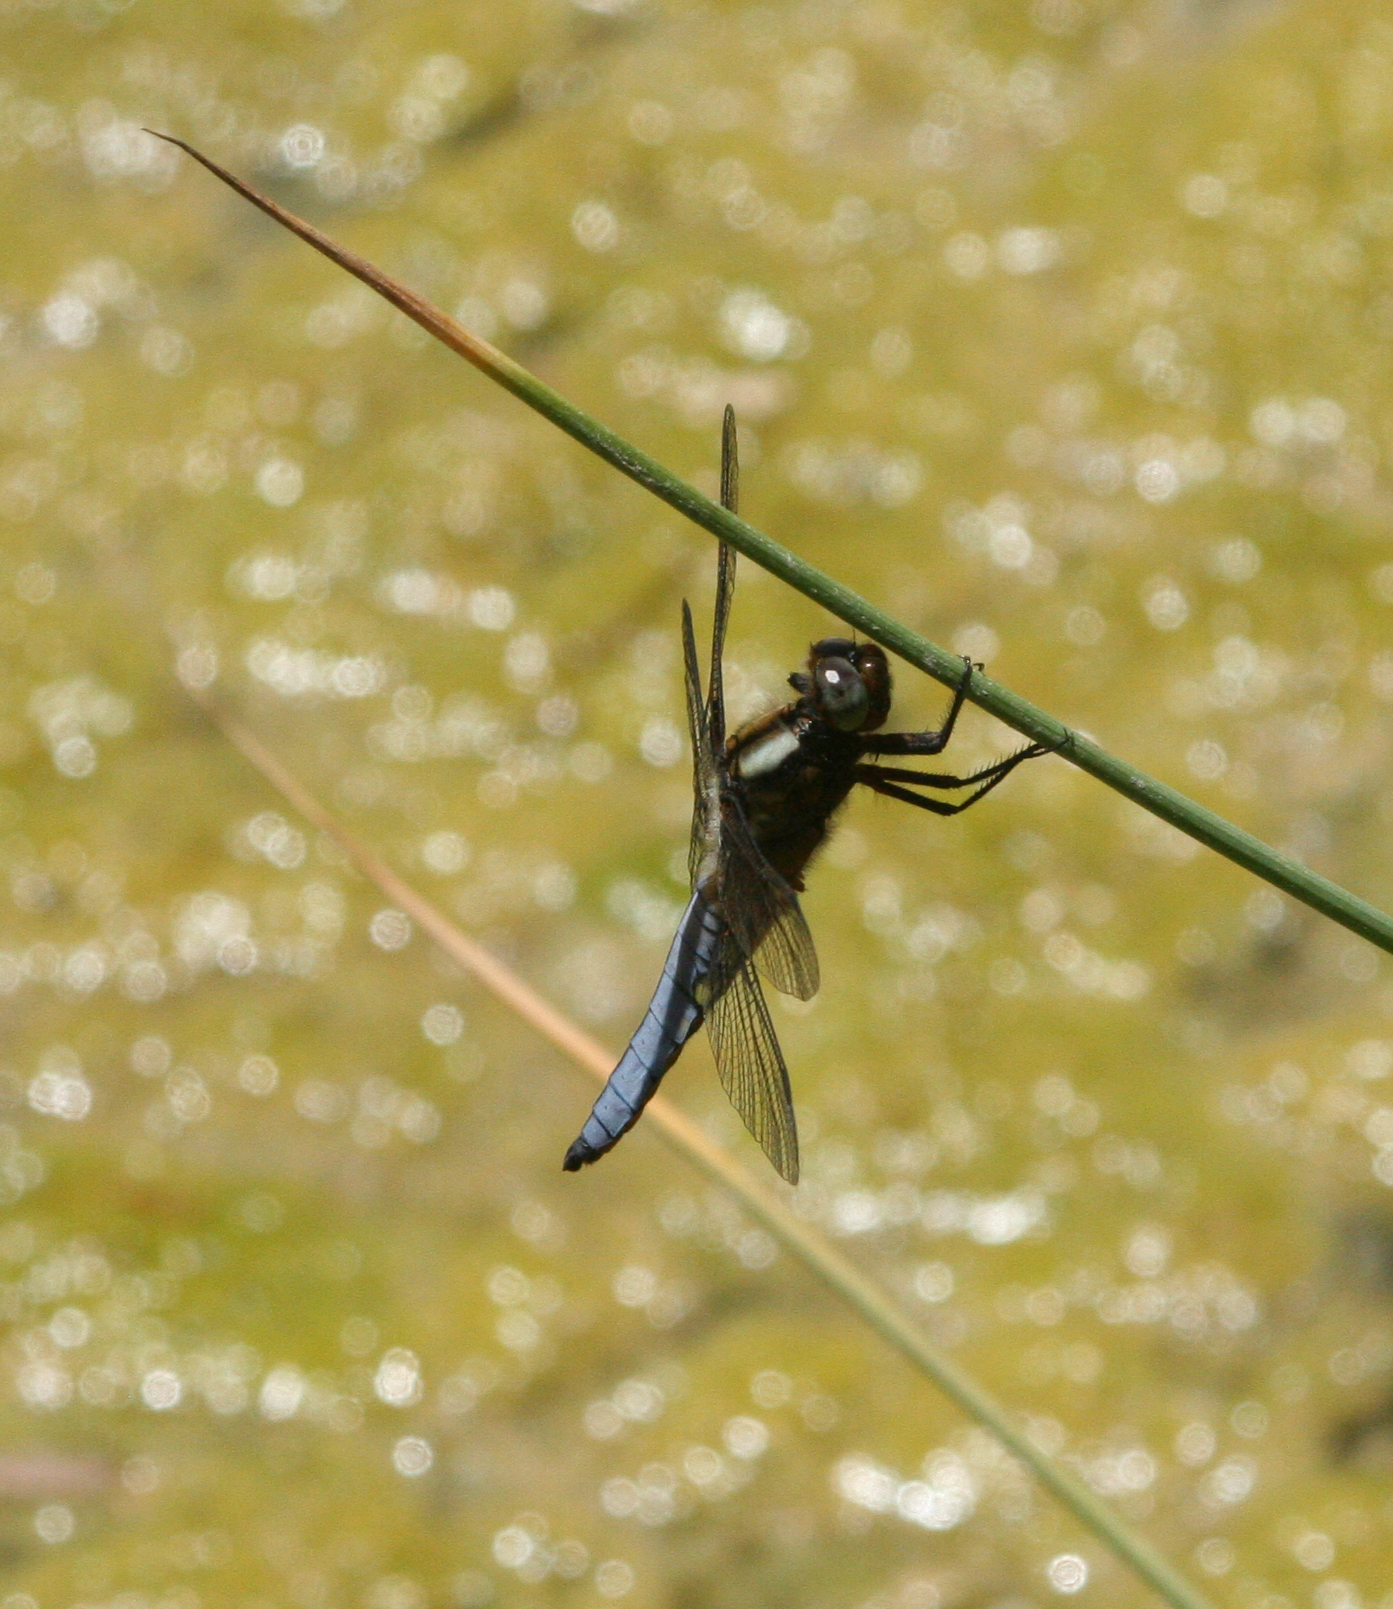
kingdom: Animalia
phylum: Arthropoda
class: Insecta
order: Odonata
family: Libellulidae
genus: Libellula
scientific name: Libellula depressa
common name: Broad-bodied chaser
